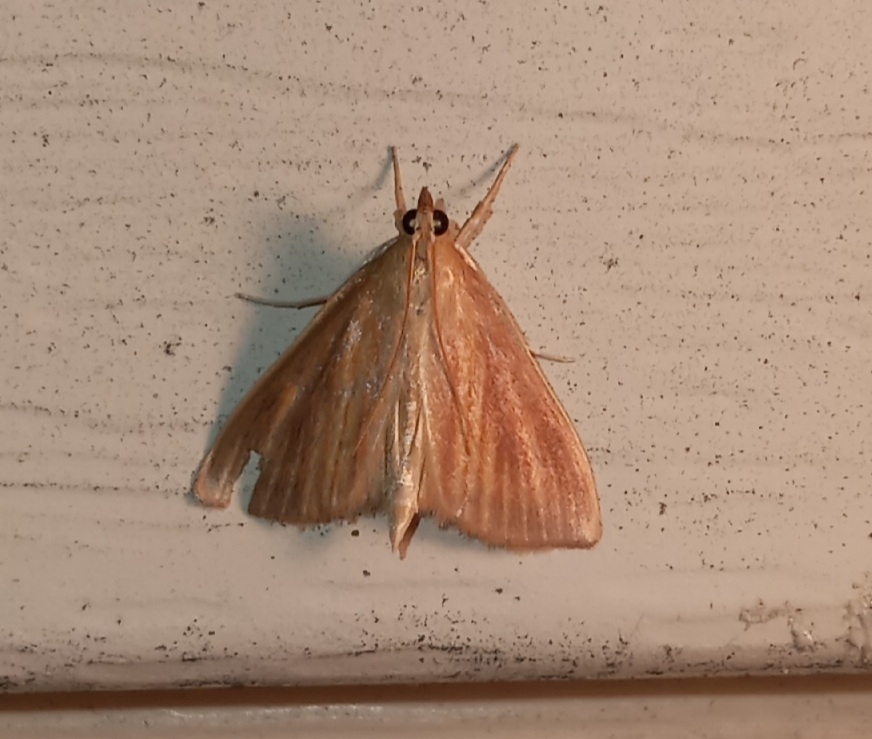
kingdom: Animalia
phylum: Arthropoda
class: Insecta
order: Lepidoptera
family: Crambidae
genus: Nascia
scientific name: Nascia acutellus
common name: Streaked orange moth
